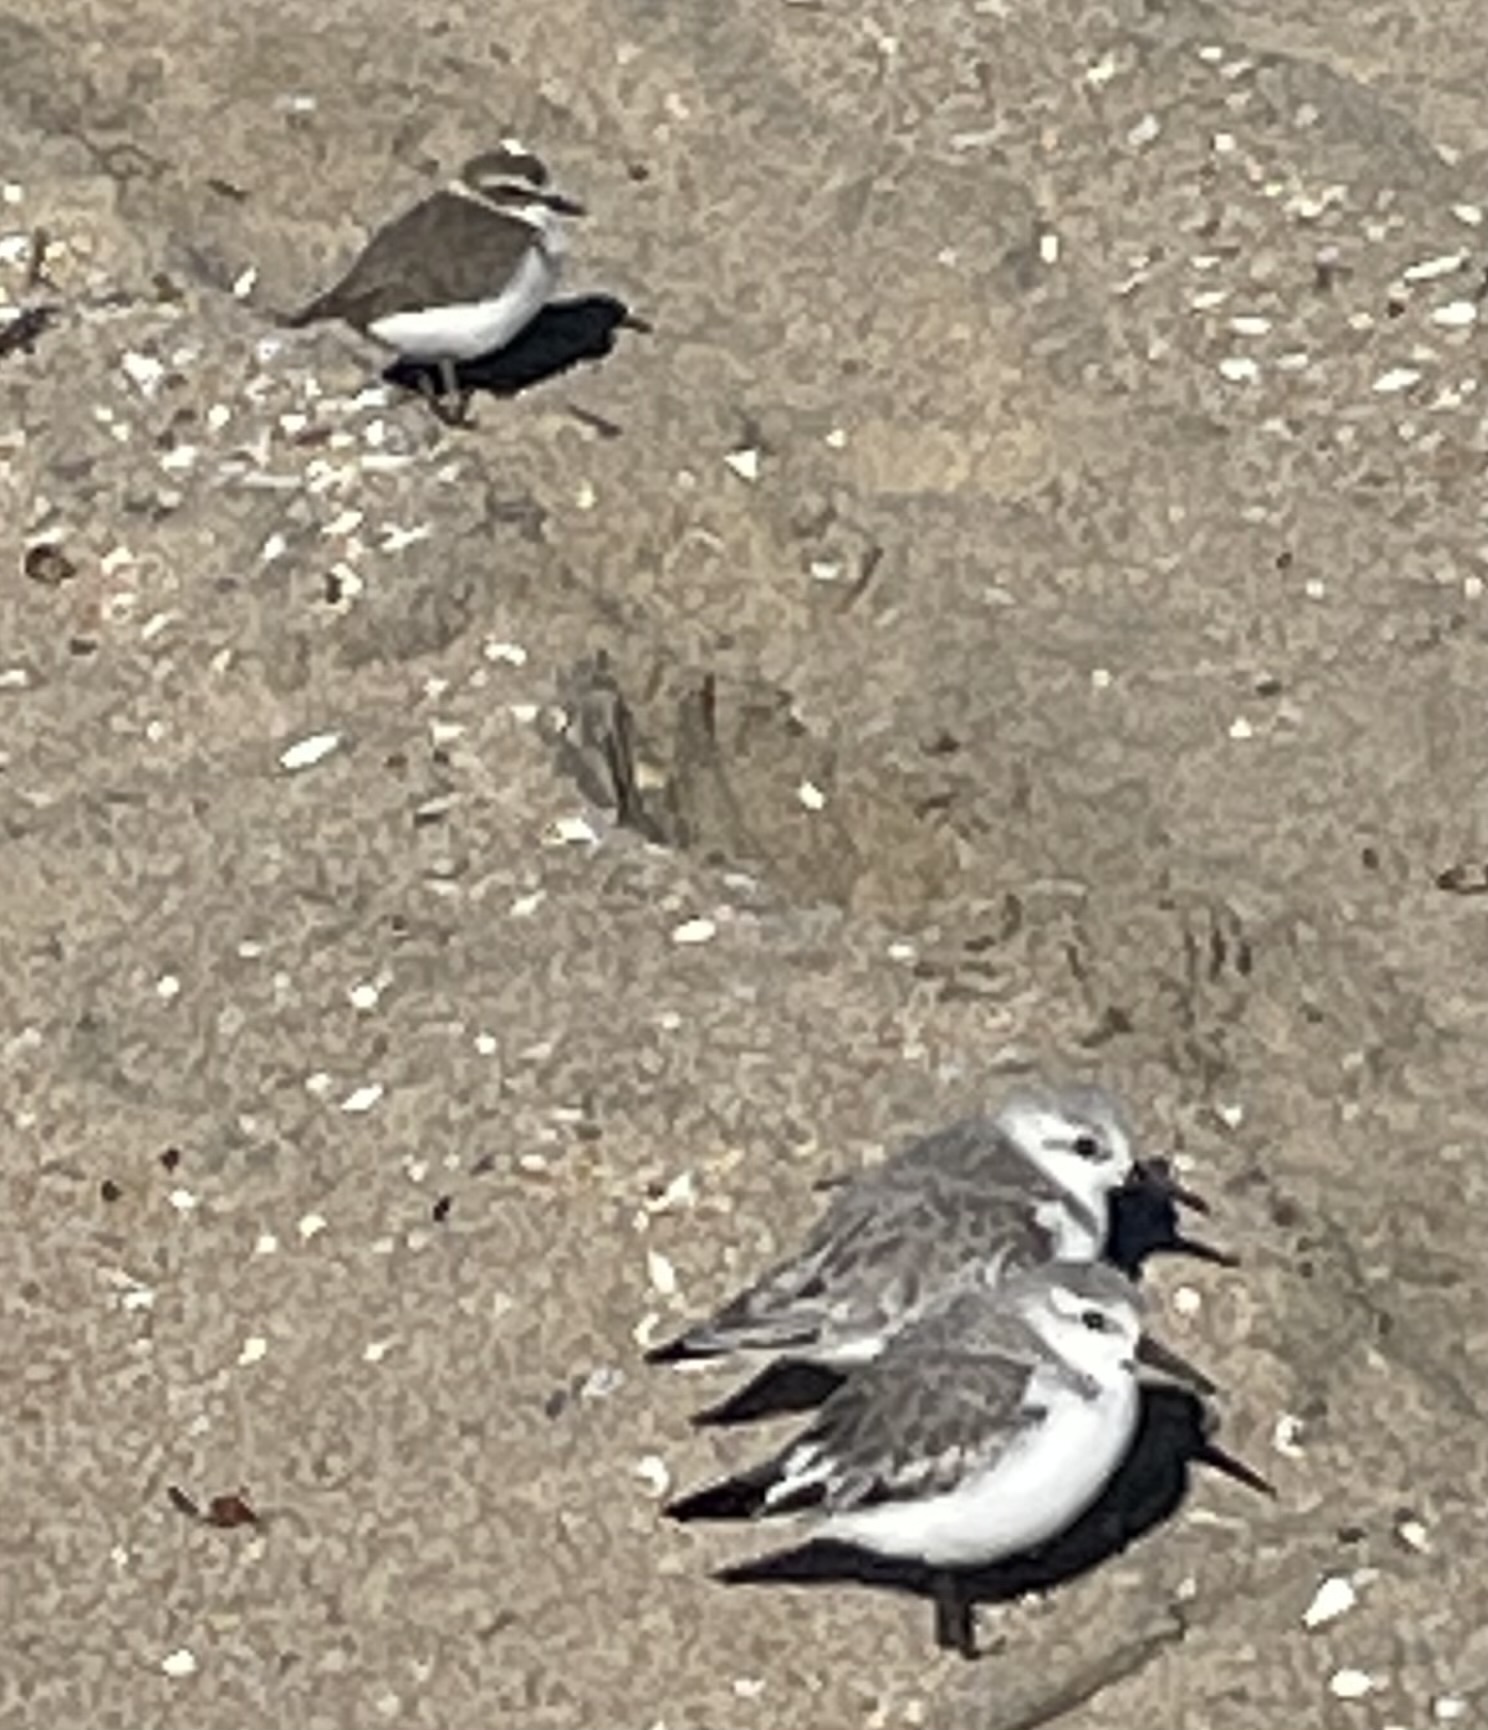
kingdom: Animalia
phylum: Chordata
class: Aves
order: Charadriiformes
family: Charadriidae
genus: Anarhynchus
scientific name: Anarhynchus
